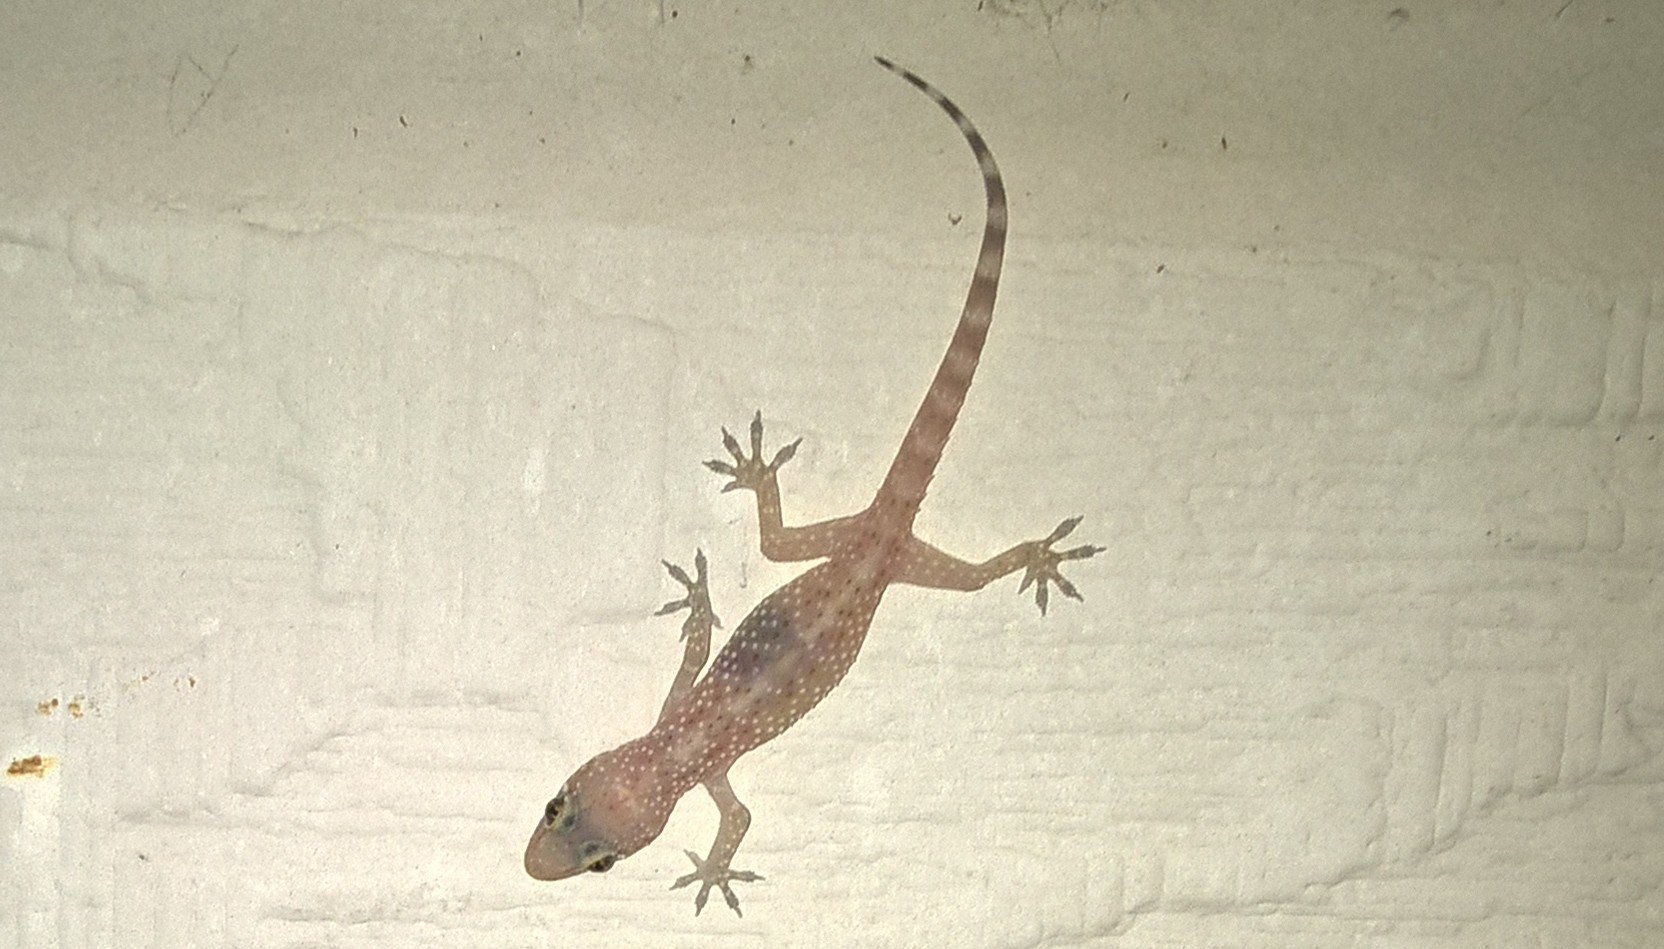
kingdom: Animalia
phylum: Chordata
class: Squamata
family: Gekkonidae
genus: Hemidactylus
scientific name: Hemidactylus turcicus
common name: Turkish gecko
